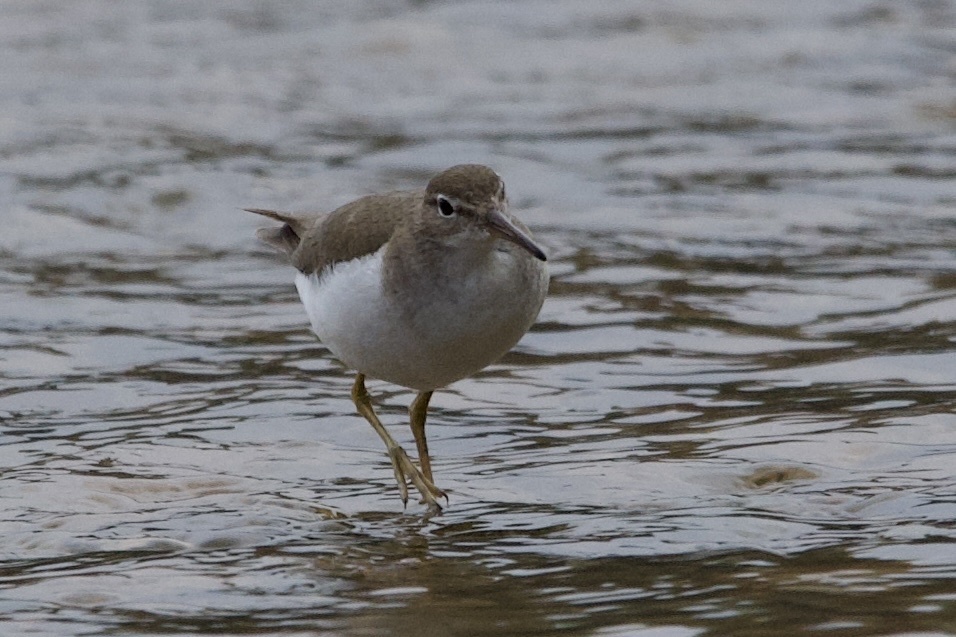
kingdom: Animalia
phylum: Chordata
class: Aves
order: Charadriiformes
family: Scolopacidae
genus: Actitis
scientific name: Actitis macularius
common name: Spotted sandpiper
